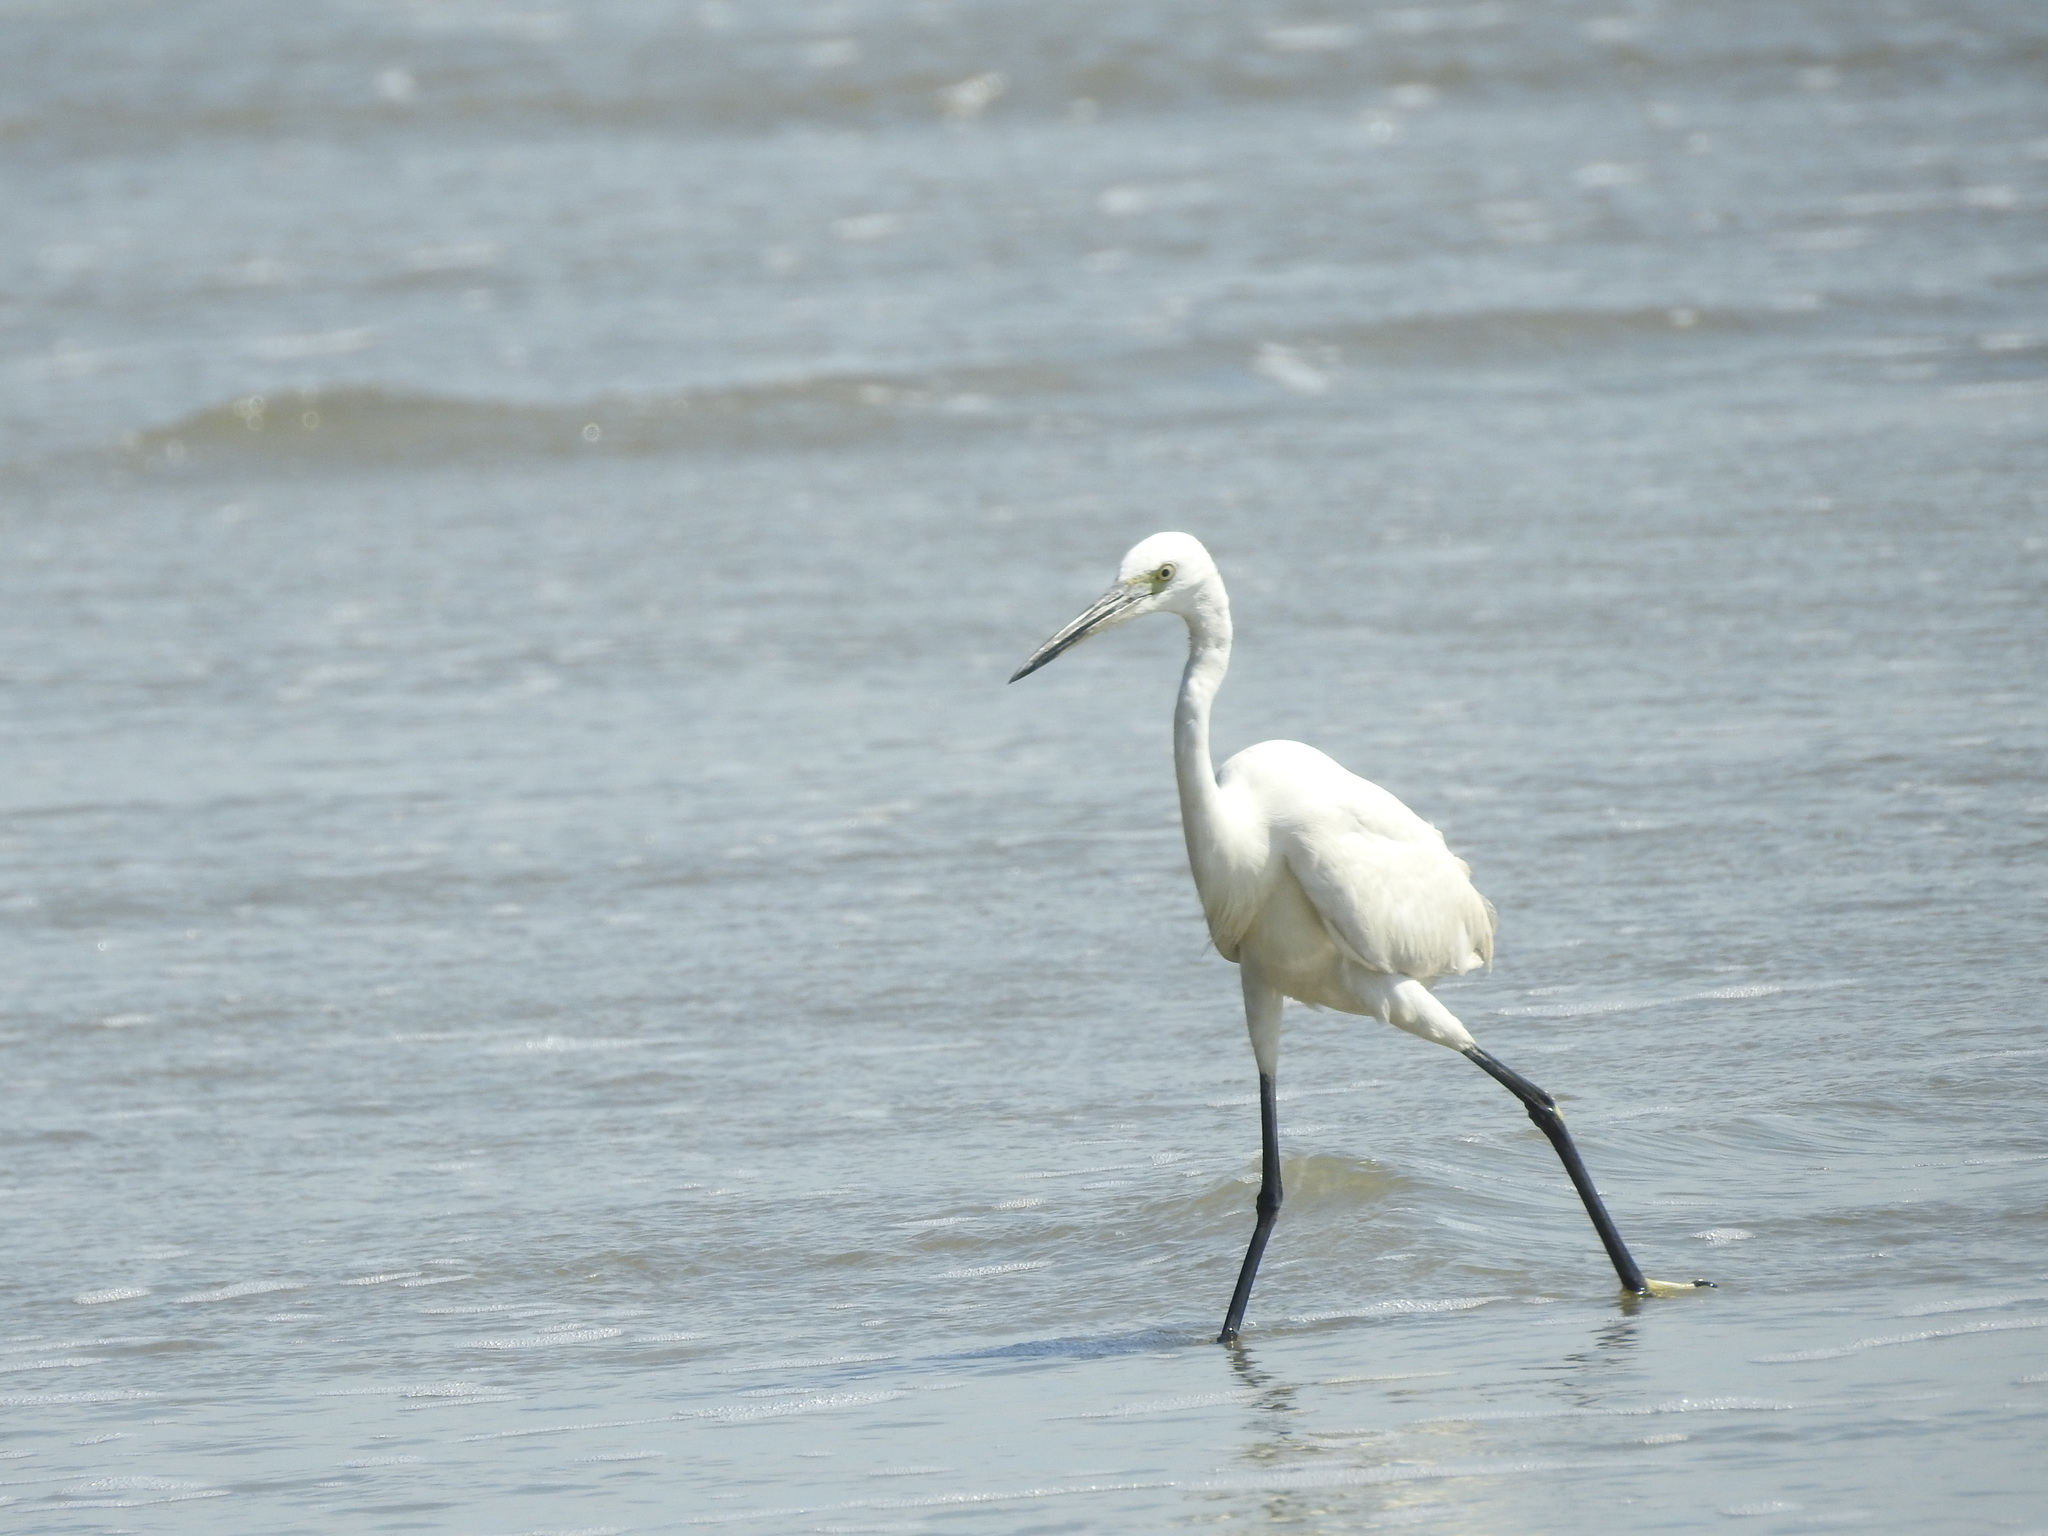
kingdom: Animalia
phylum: Chordata
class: Aves
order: Pelecaniformes
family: Ardeidae
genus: Egretta
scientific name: Egretta garzetta
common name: Little egret
